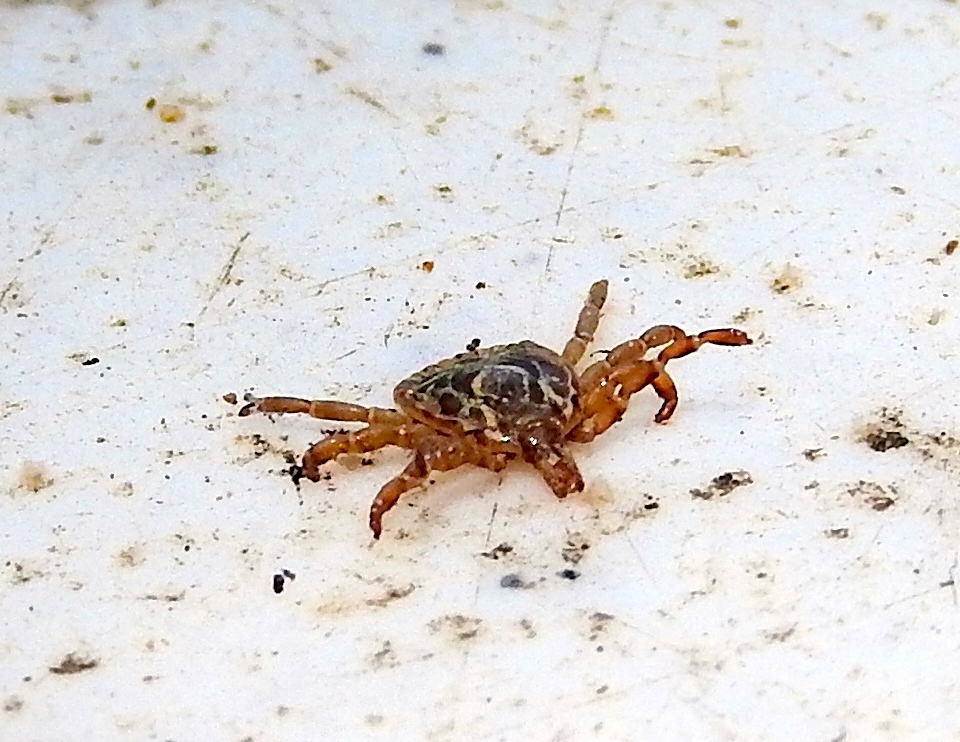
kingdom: Animalia
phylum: Arthropoda
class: Arachnida
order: Ixodida
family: Ixodidae
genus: Amblyomma
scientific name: Amblyomma
